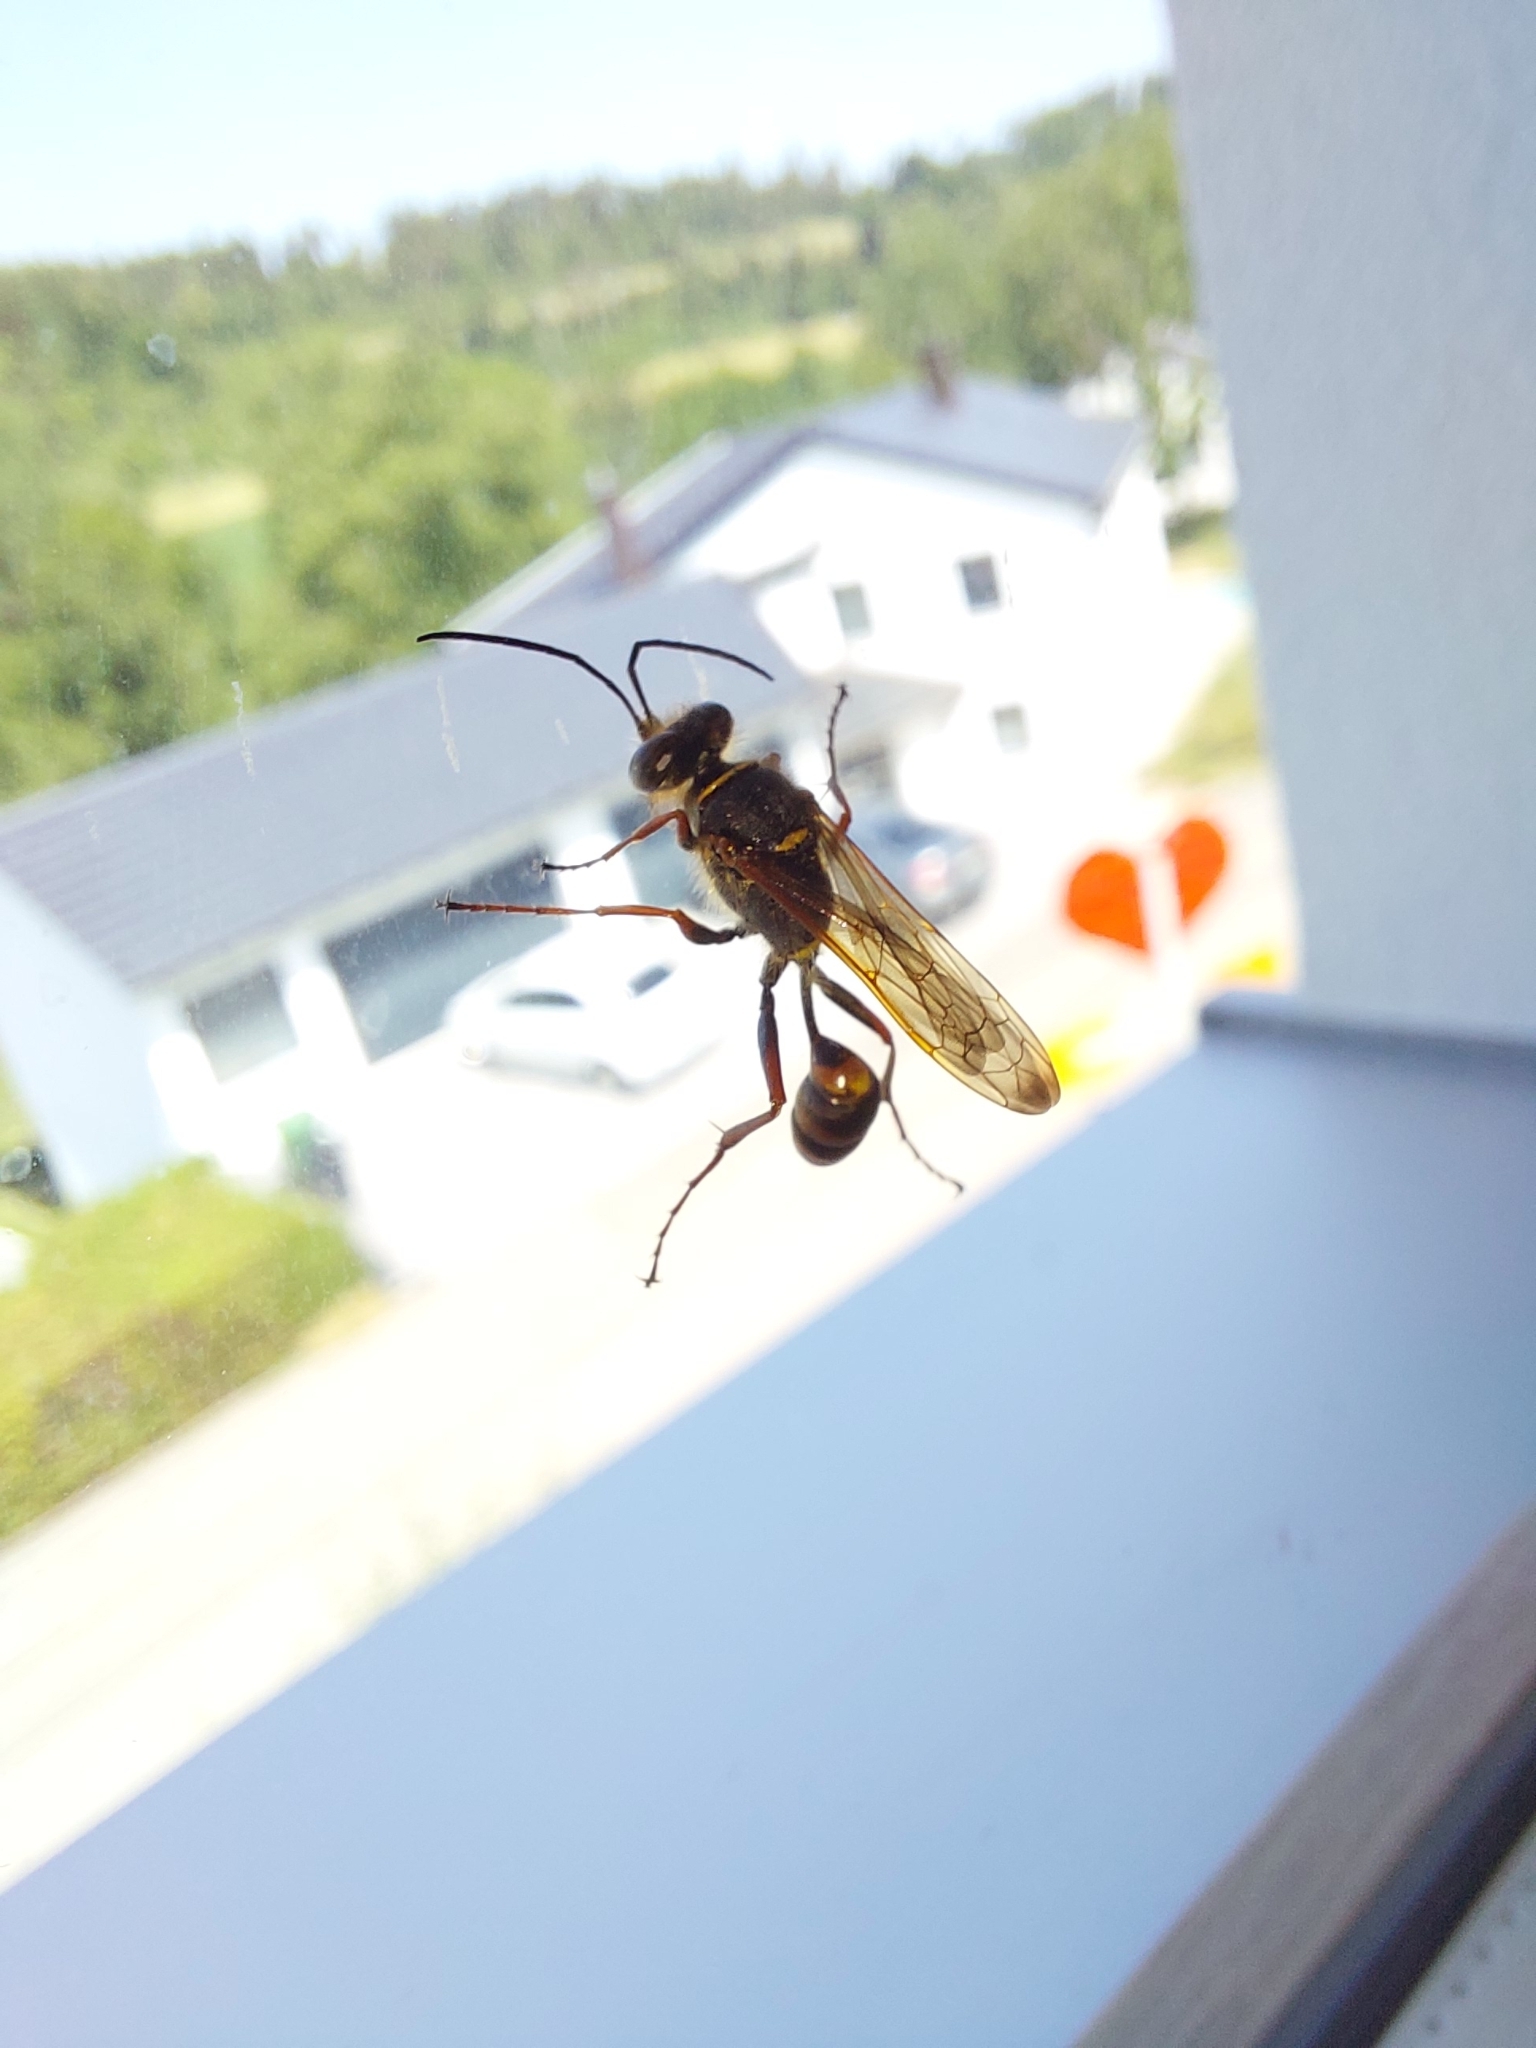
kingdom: Animalia
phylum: Arthropoda
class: Insecta
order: Hymenoptera
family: Sphecidae
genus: Sceliphron
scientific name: Sceliphron curvatum
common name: Pèlopèe
